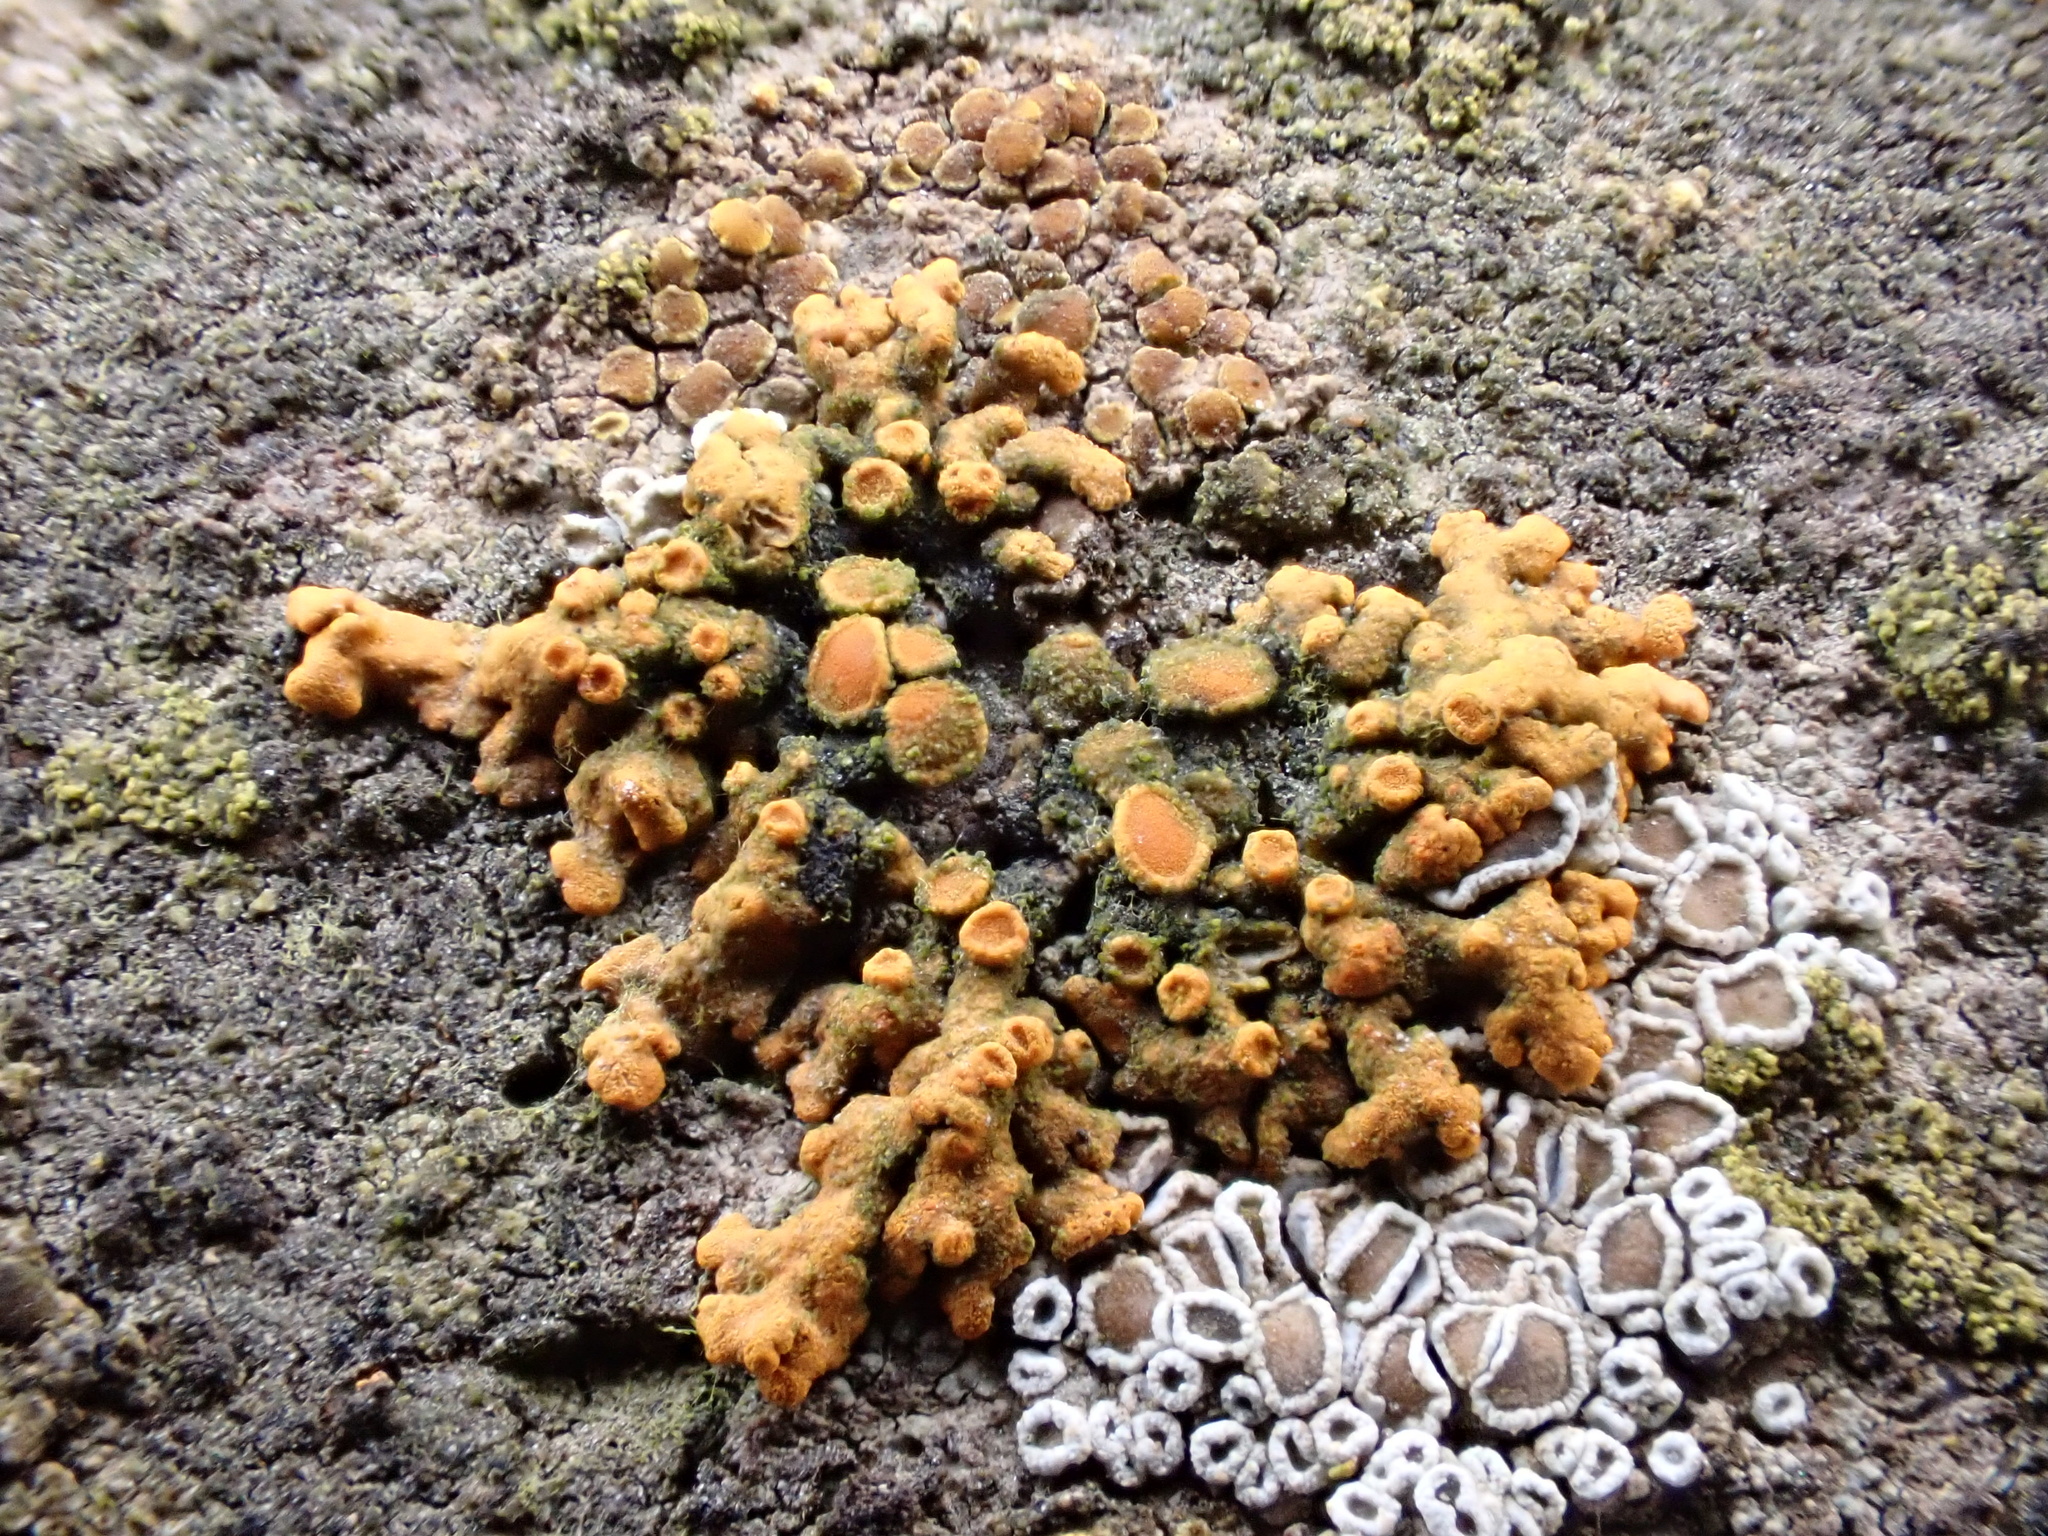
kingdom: Fungi
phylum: Ascomycota
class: Lecanoromycetes
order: Teloschistales
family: Teloschistaceae
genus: Xanthoria
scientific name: Xanthoria elegans
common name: Elegant sunburst lichen
